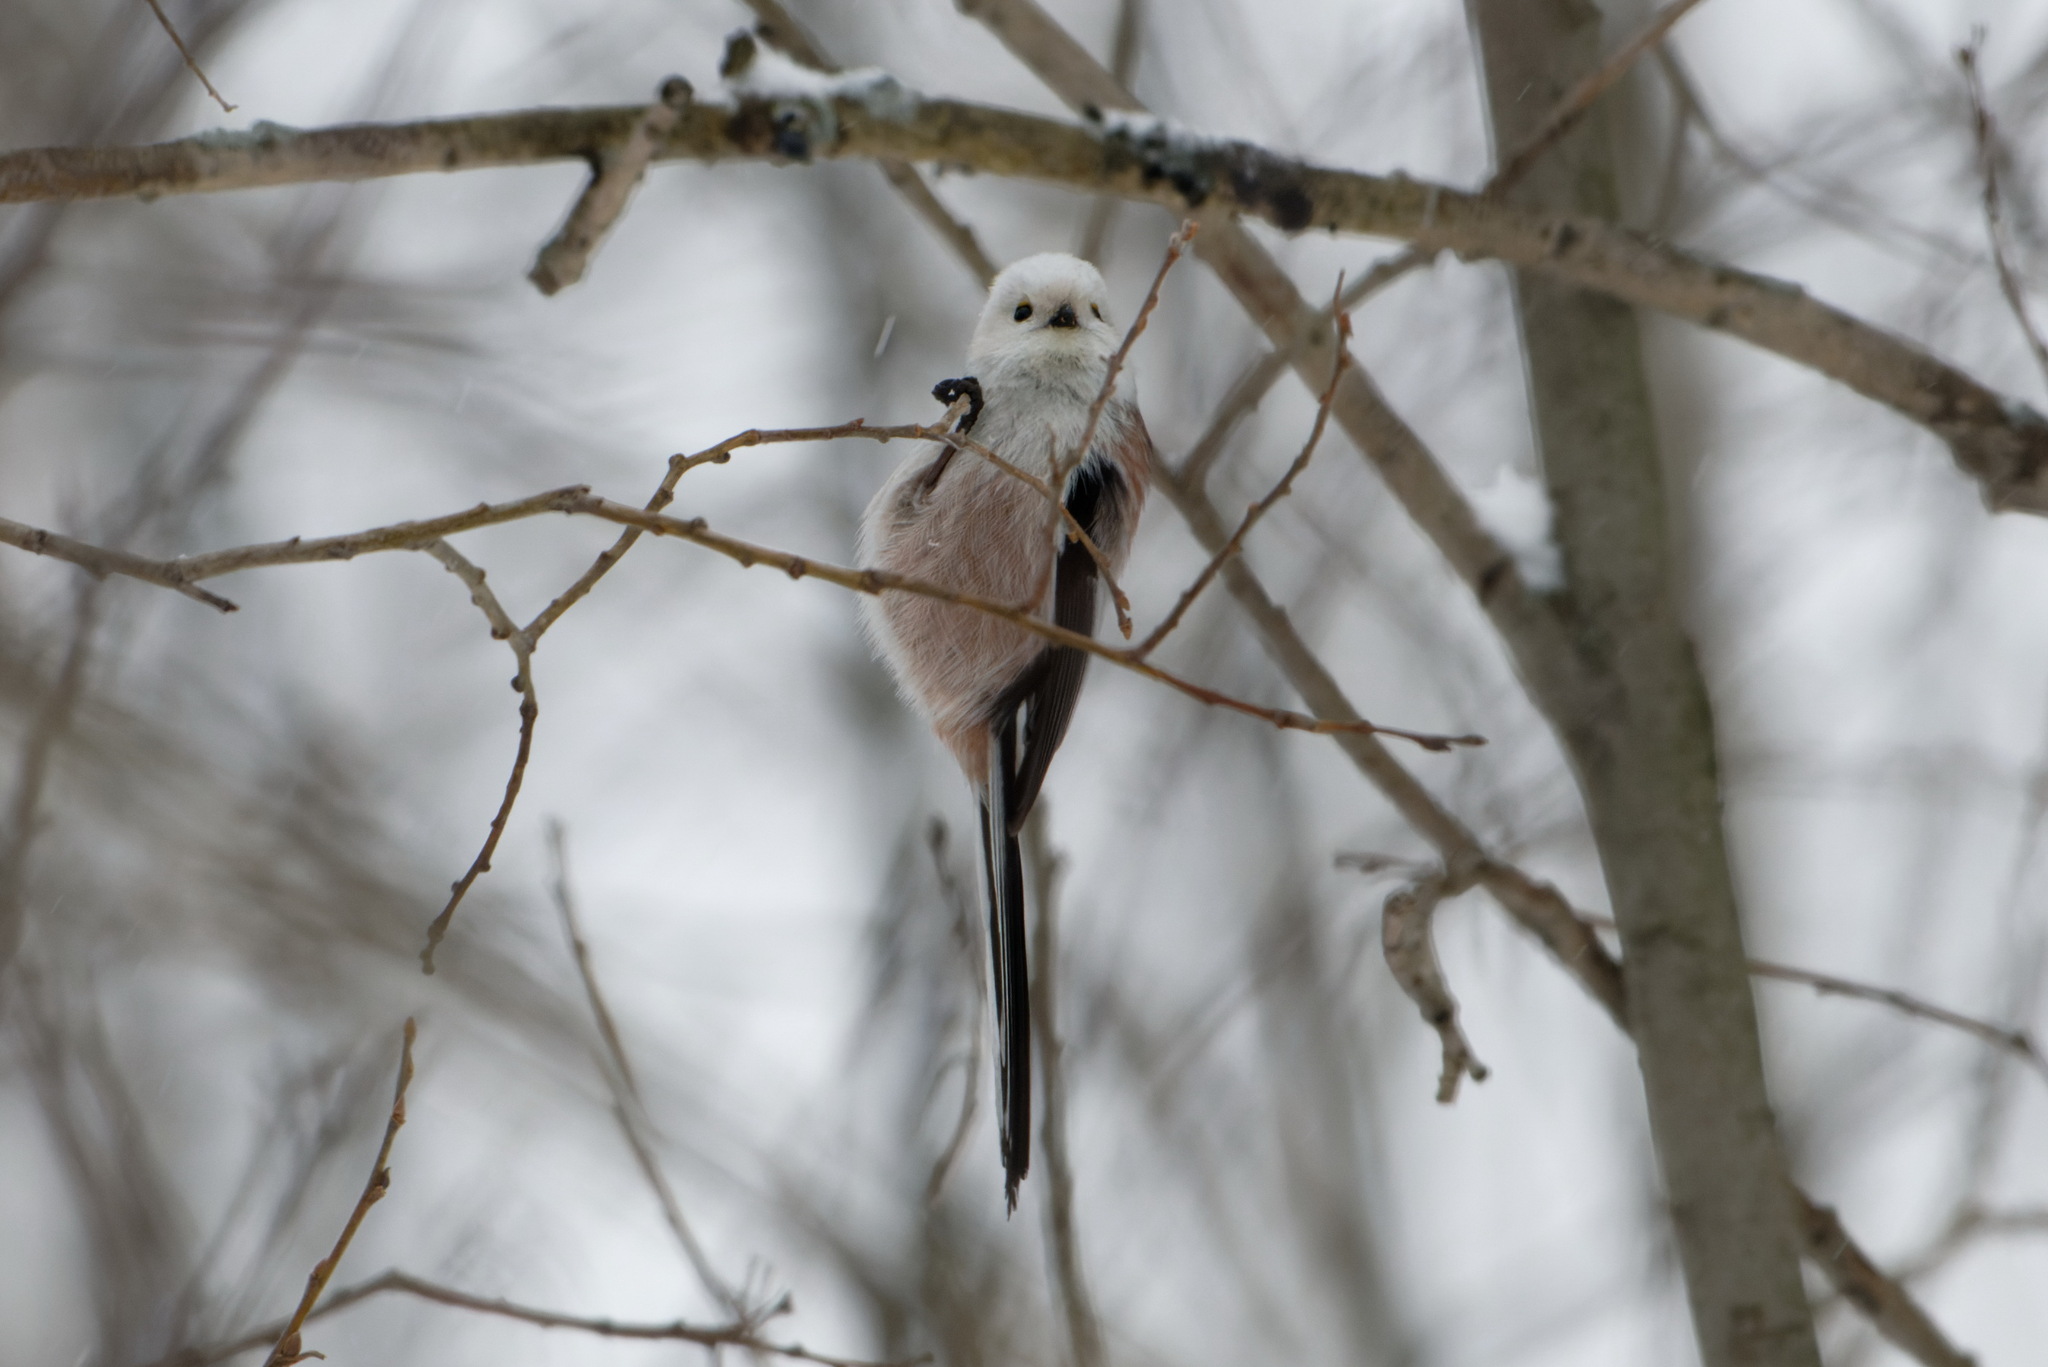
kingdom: Animalia
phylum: Chordata
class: Aves
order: Passeriformes
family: Aegithalidae
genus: Aegithalos
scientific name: Aegithalos caudatus
